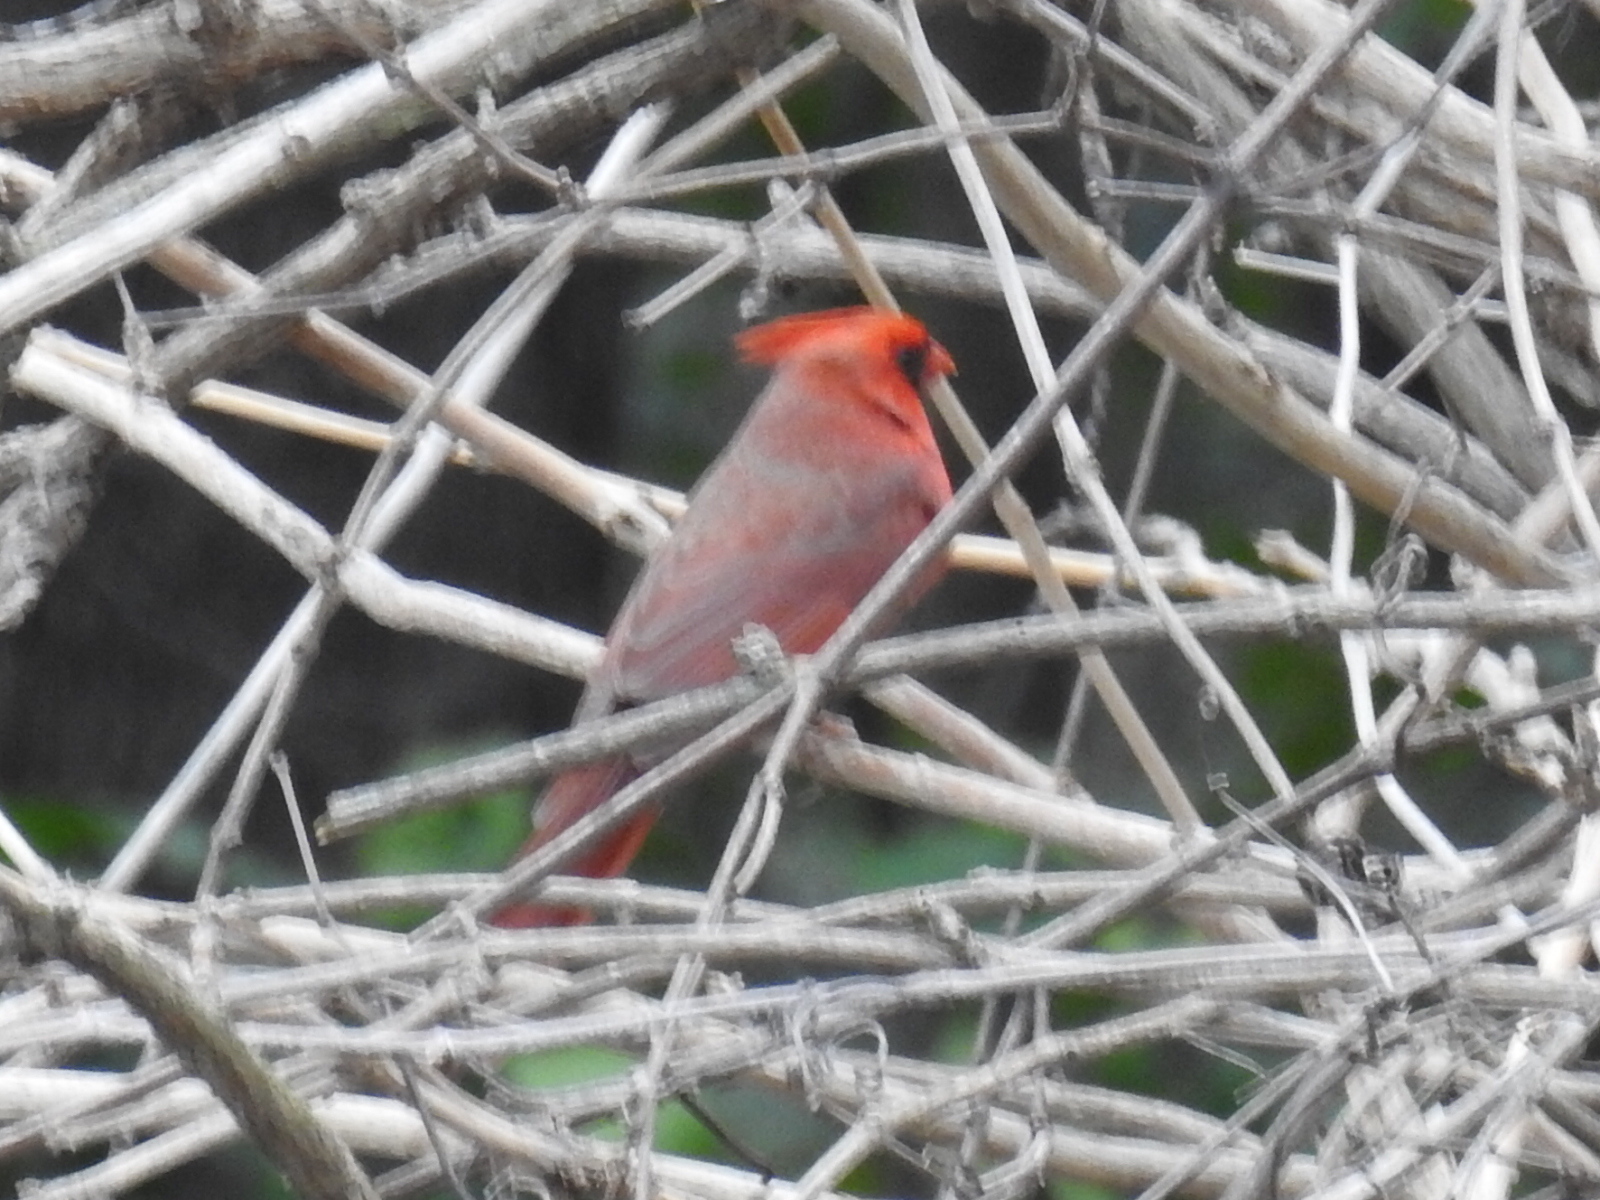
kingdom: Animalia
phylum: Chordata
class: Aves
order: Passeriformes
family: Cardinalidae
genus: Cardinalis
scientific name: Cardinalis cardinalis
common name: Northern cardinal
